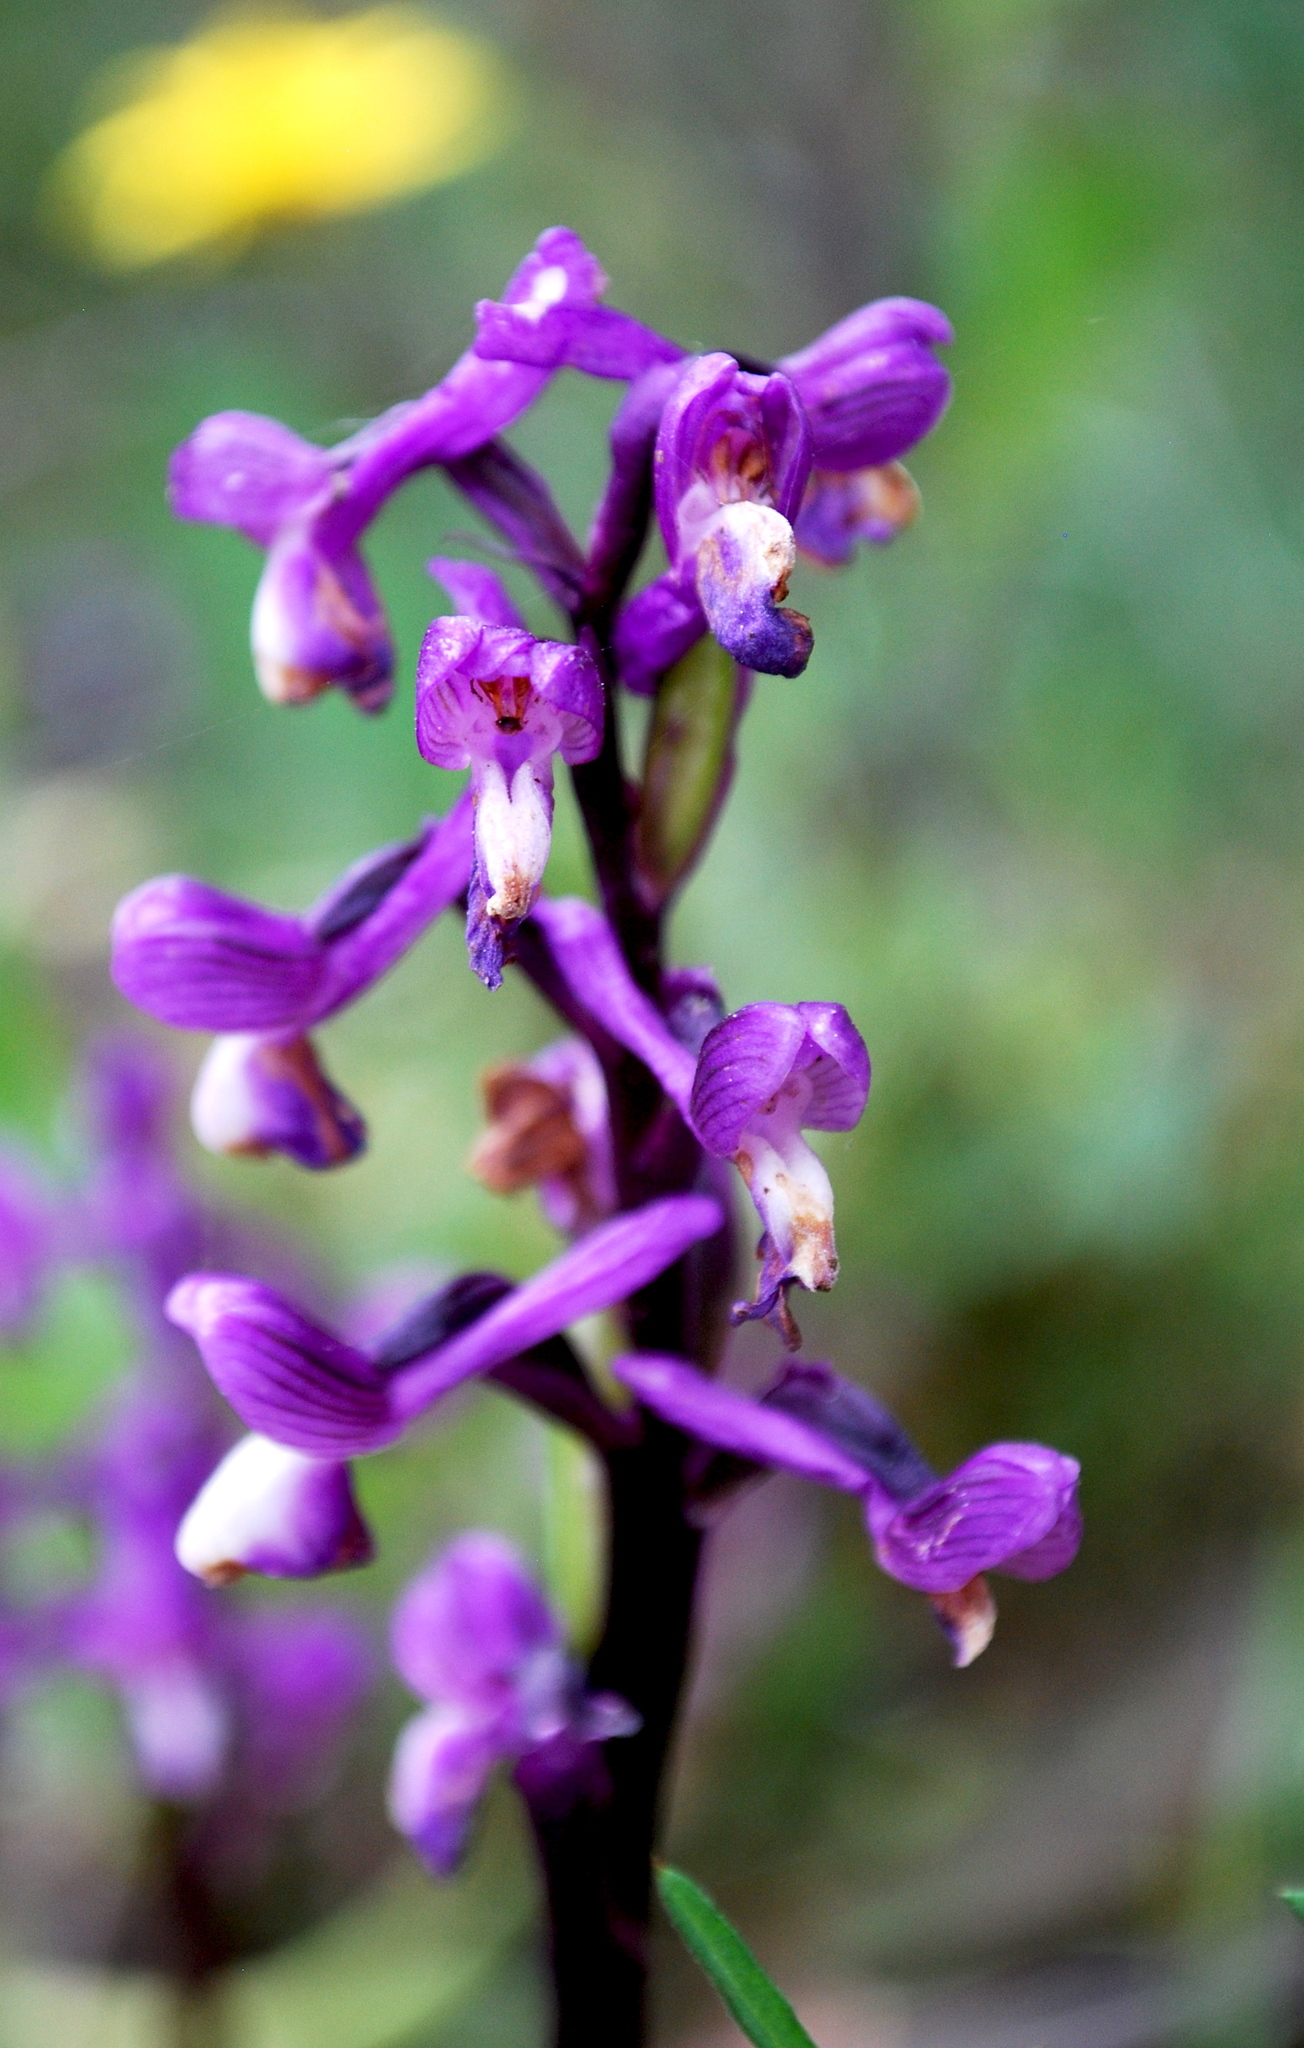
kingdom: Plantae
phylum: Tracheophyta
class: Liliopsida
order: Asparagales
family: Orchidaceae
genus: Anacamptis
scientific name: Anacamptis morio
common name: Green-winged orchid
